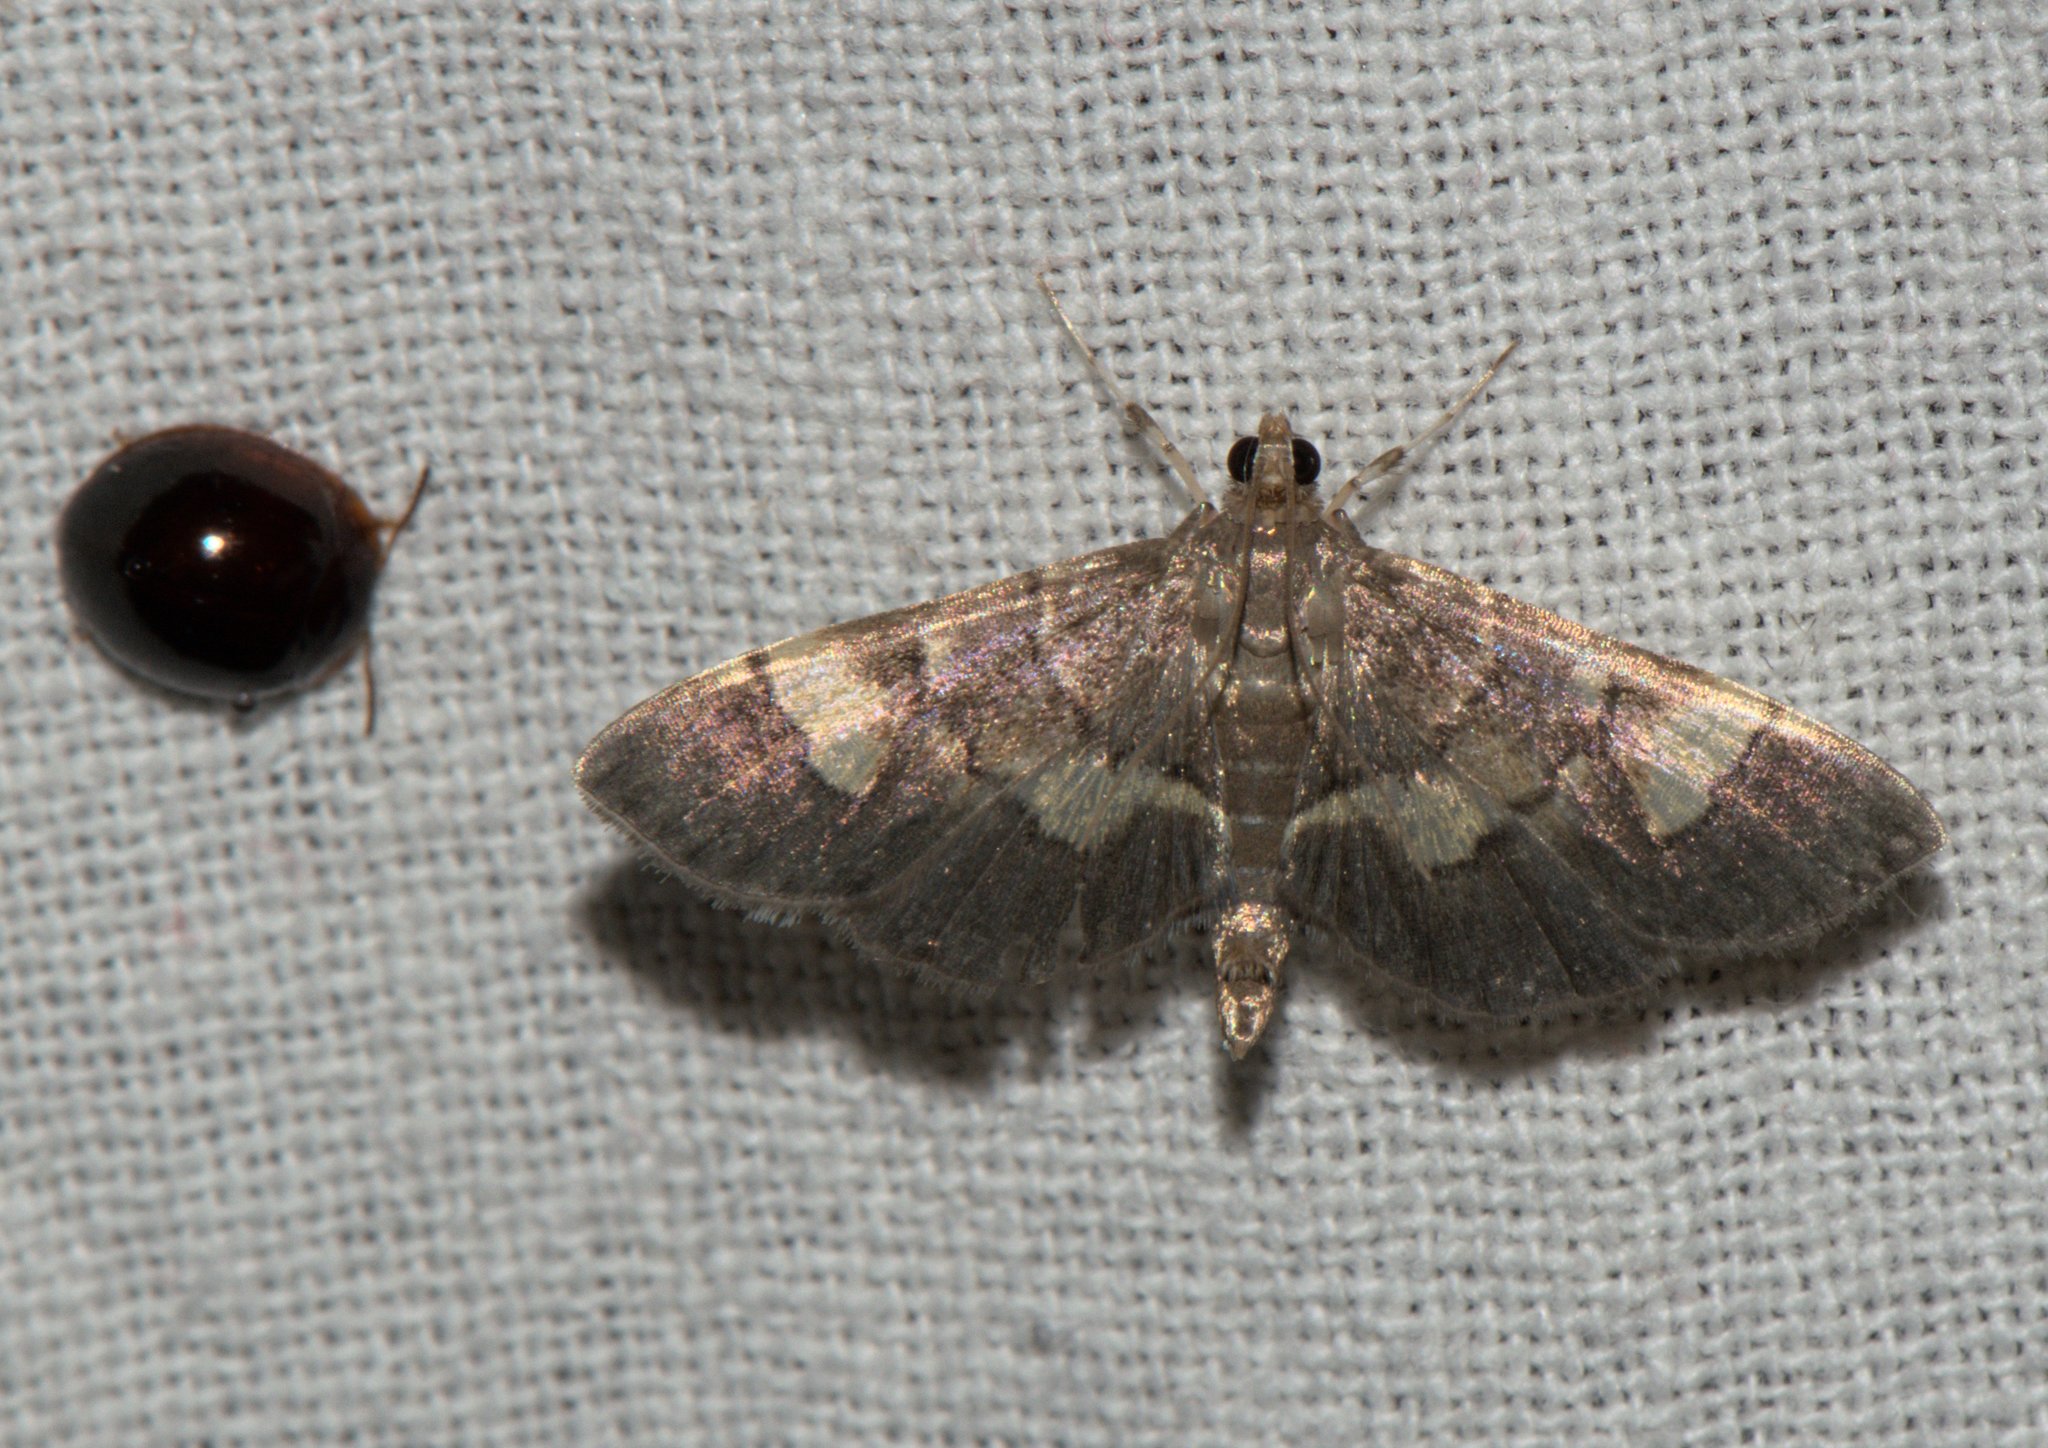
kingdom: Animalia
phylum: Arthropoda
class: Insecta
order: Lepidoptera
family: Crambidae
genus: Syngamia
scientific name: Syngamia falsidicalis
